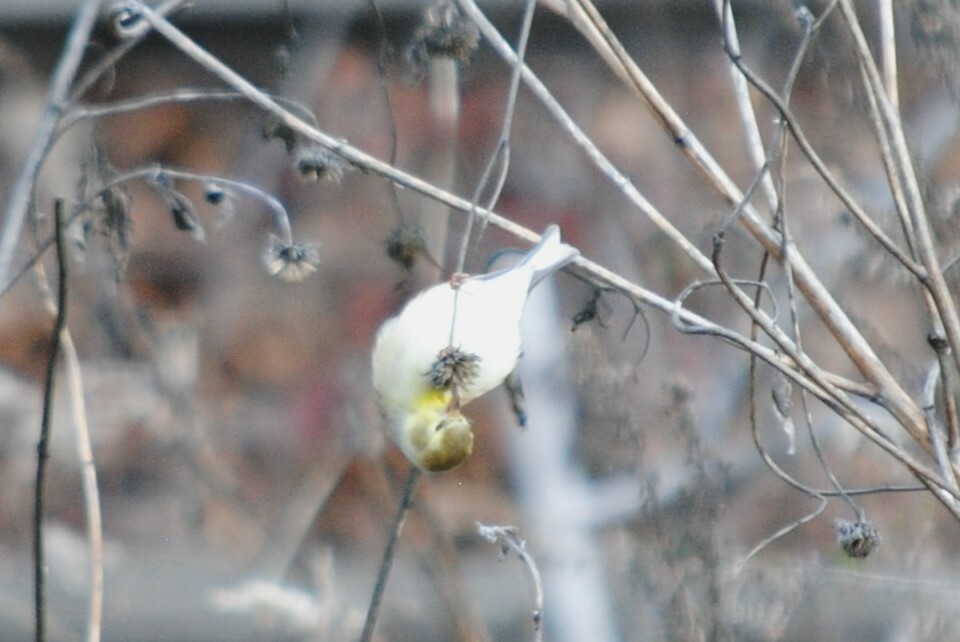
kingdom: Animalia
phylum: Chordata
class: Aves
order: Passeriformes
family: Fringillidae
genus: Spinus
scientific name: Spinus tristis
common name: American goldfinch
